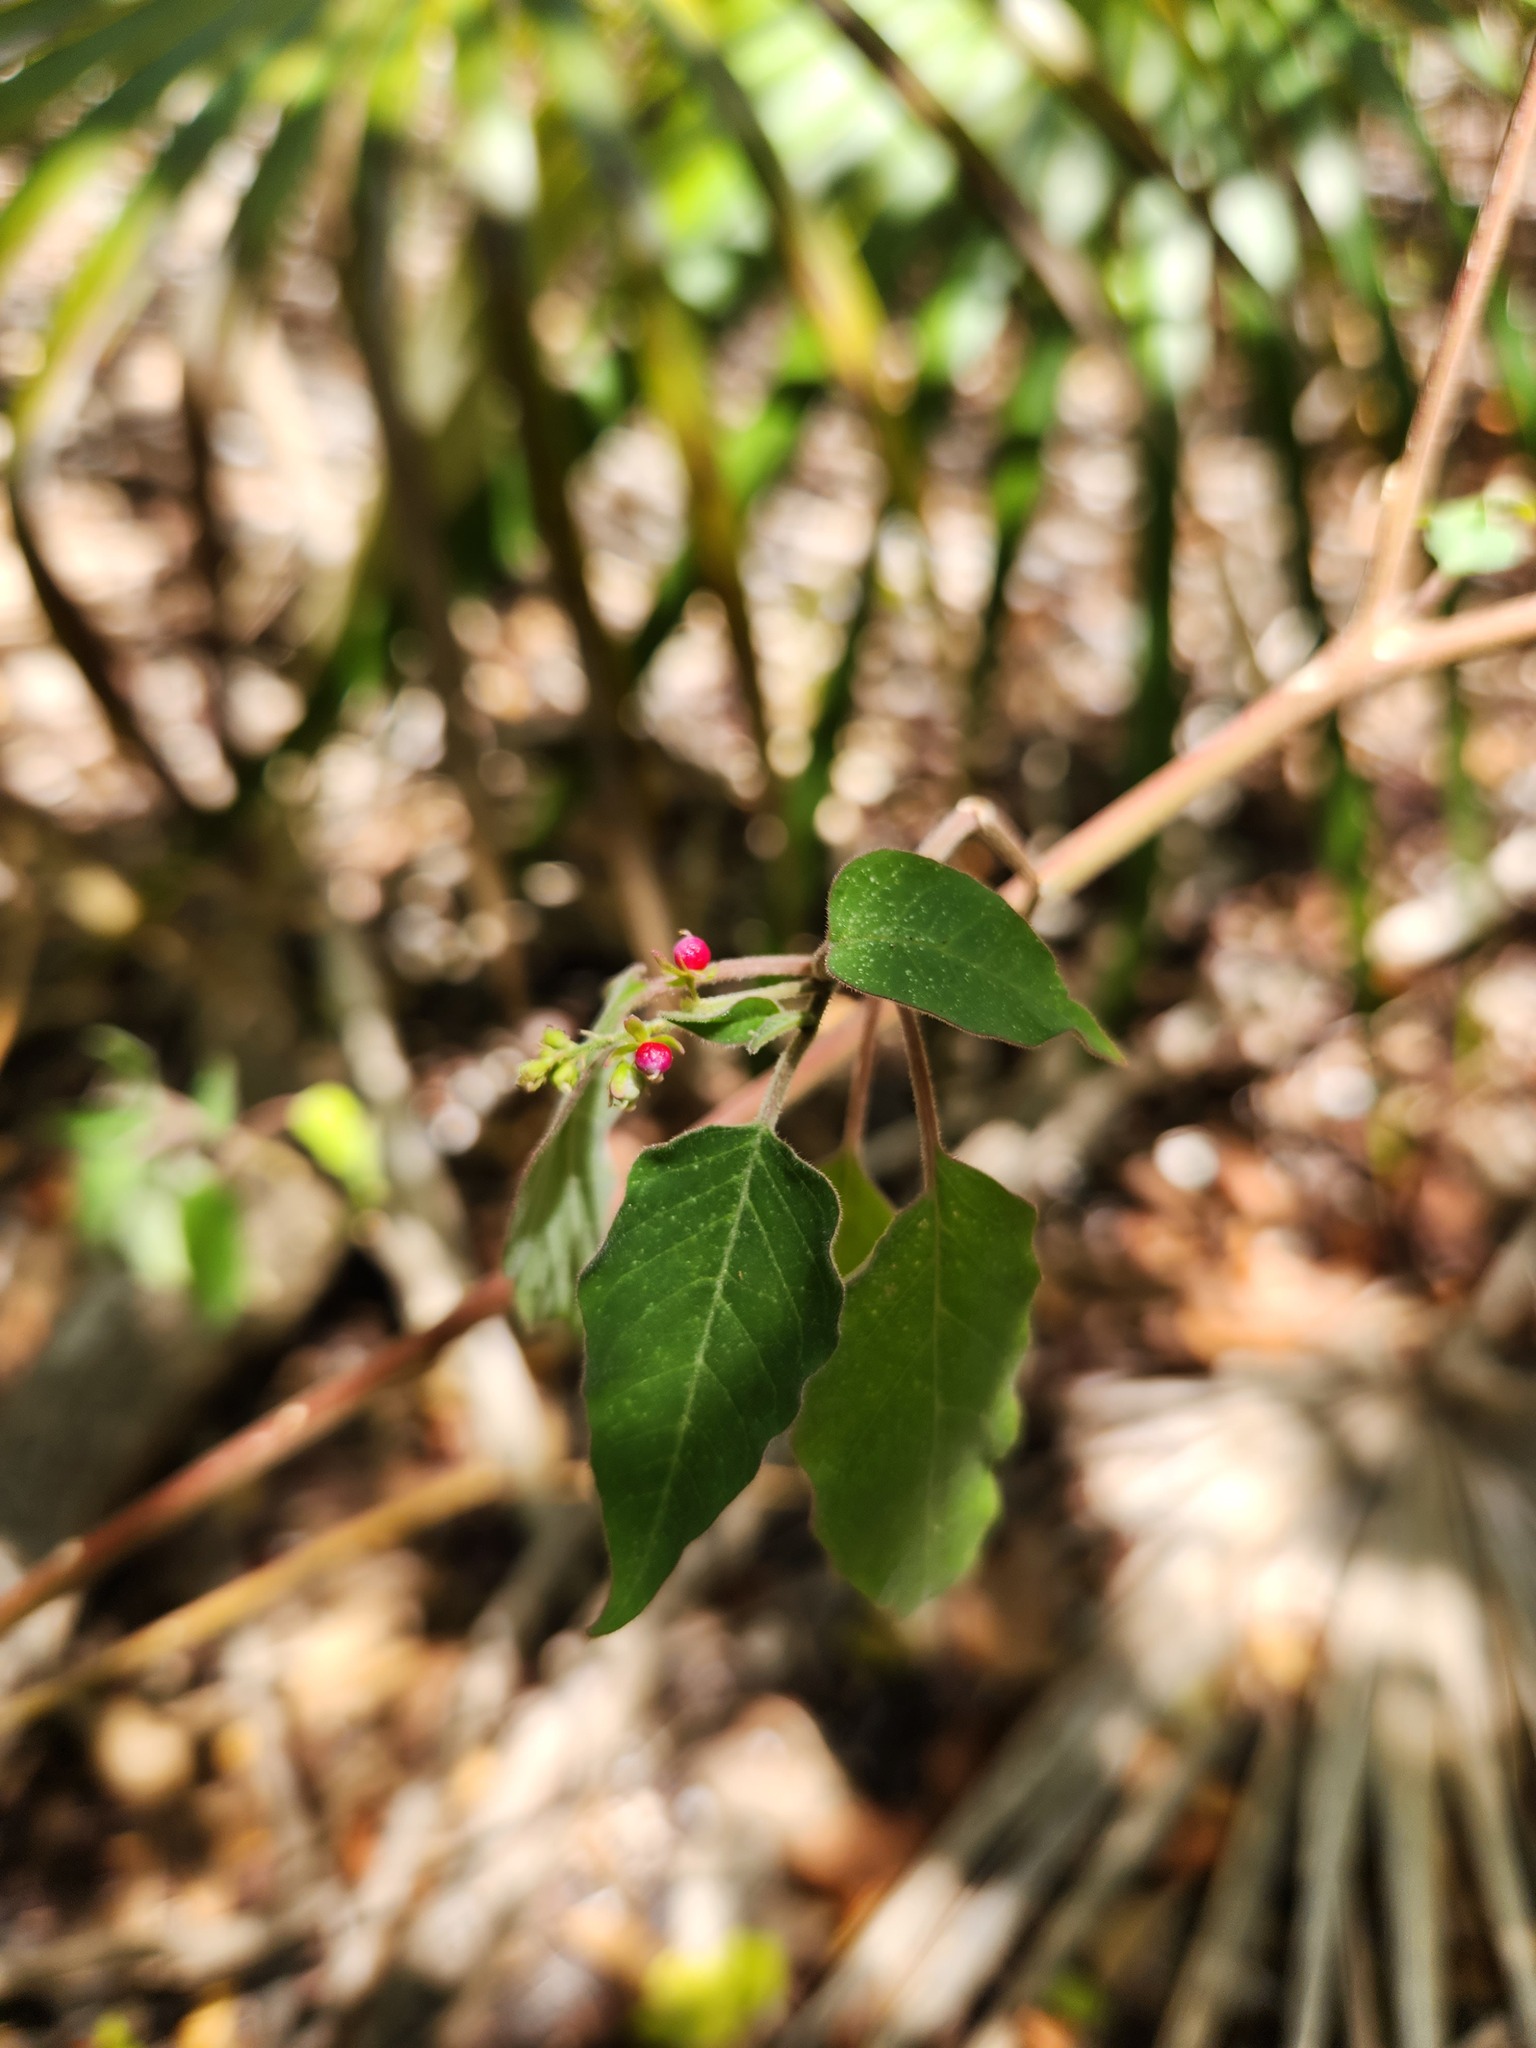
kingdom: Plantae
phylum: Tracheophyta
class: Magnoliopsida
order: Caryophyllales
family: Phytolaccaceae
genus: Rivina
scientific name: Rivina humilis
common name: Rougeplant
